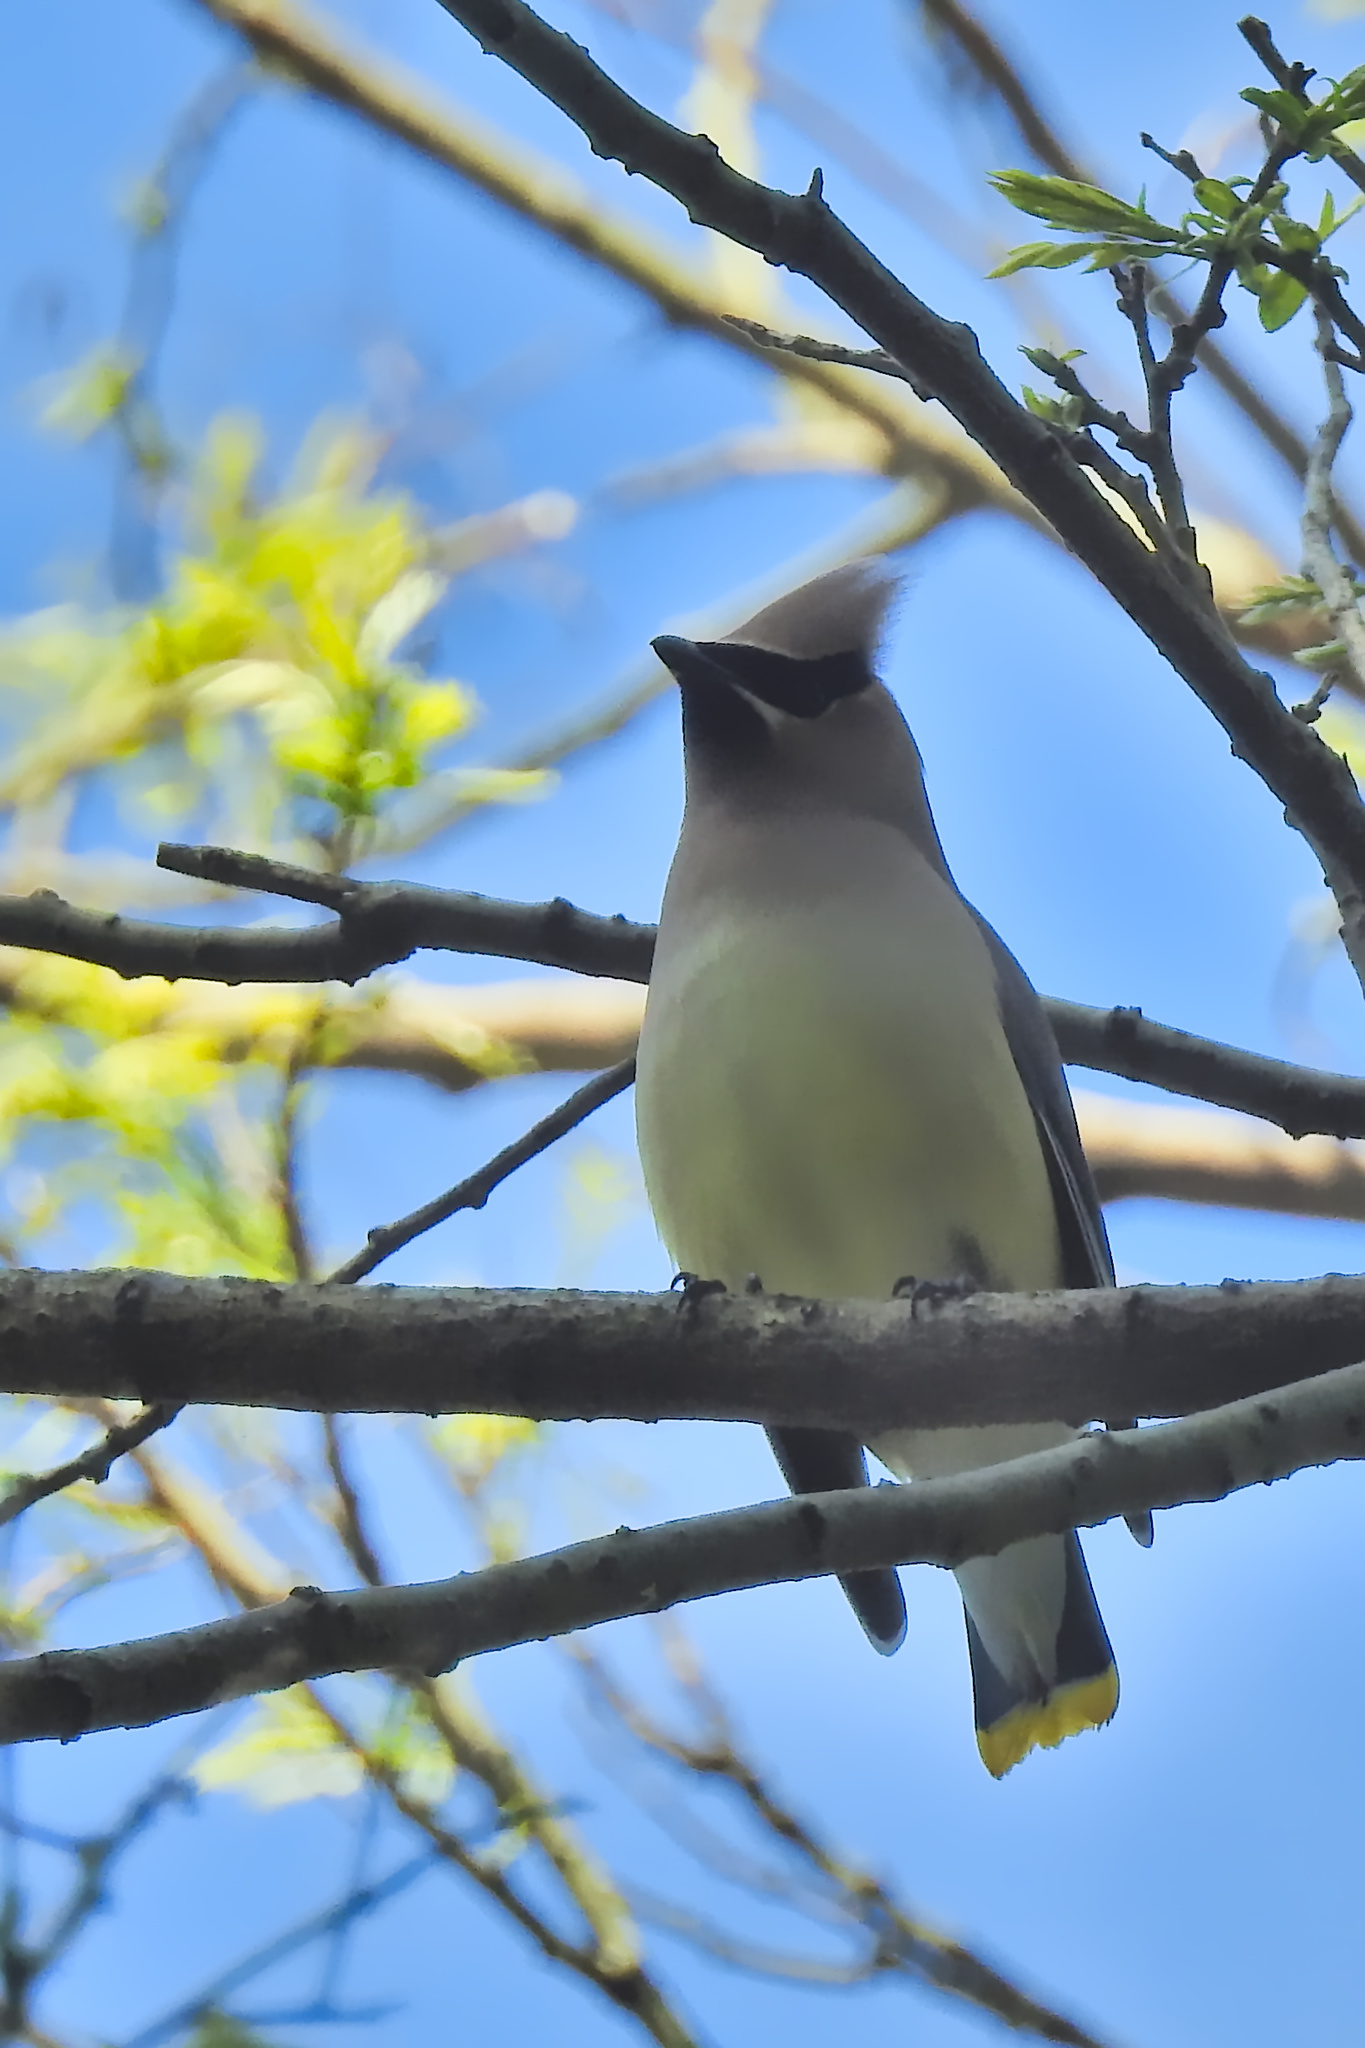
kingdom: Animalia
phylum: Chordata
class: Aves
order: Passeriformes
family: Bombycillidae
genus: Bombycilla
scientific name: Bombycilla cedrorum
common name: Cedar waxwing
